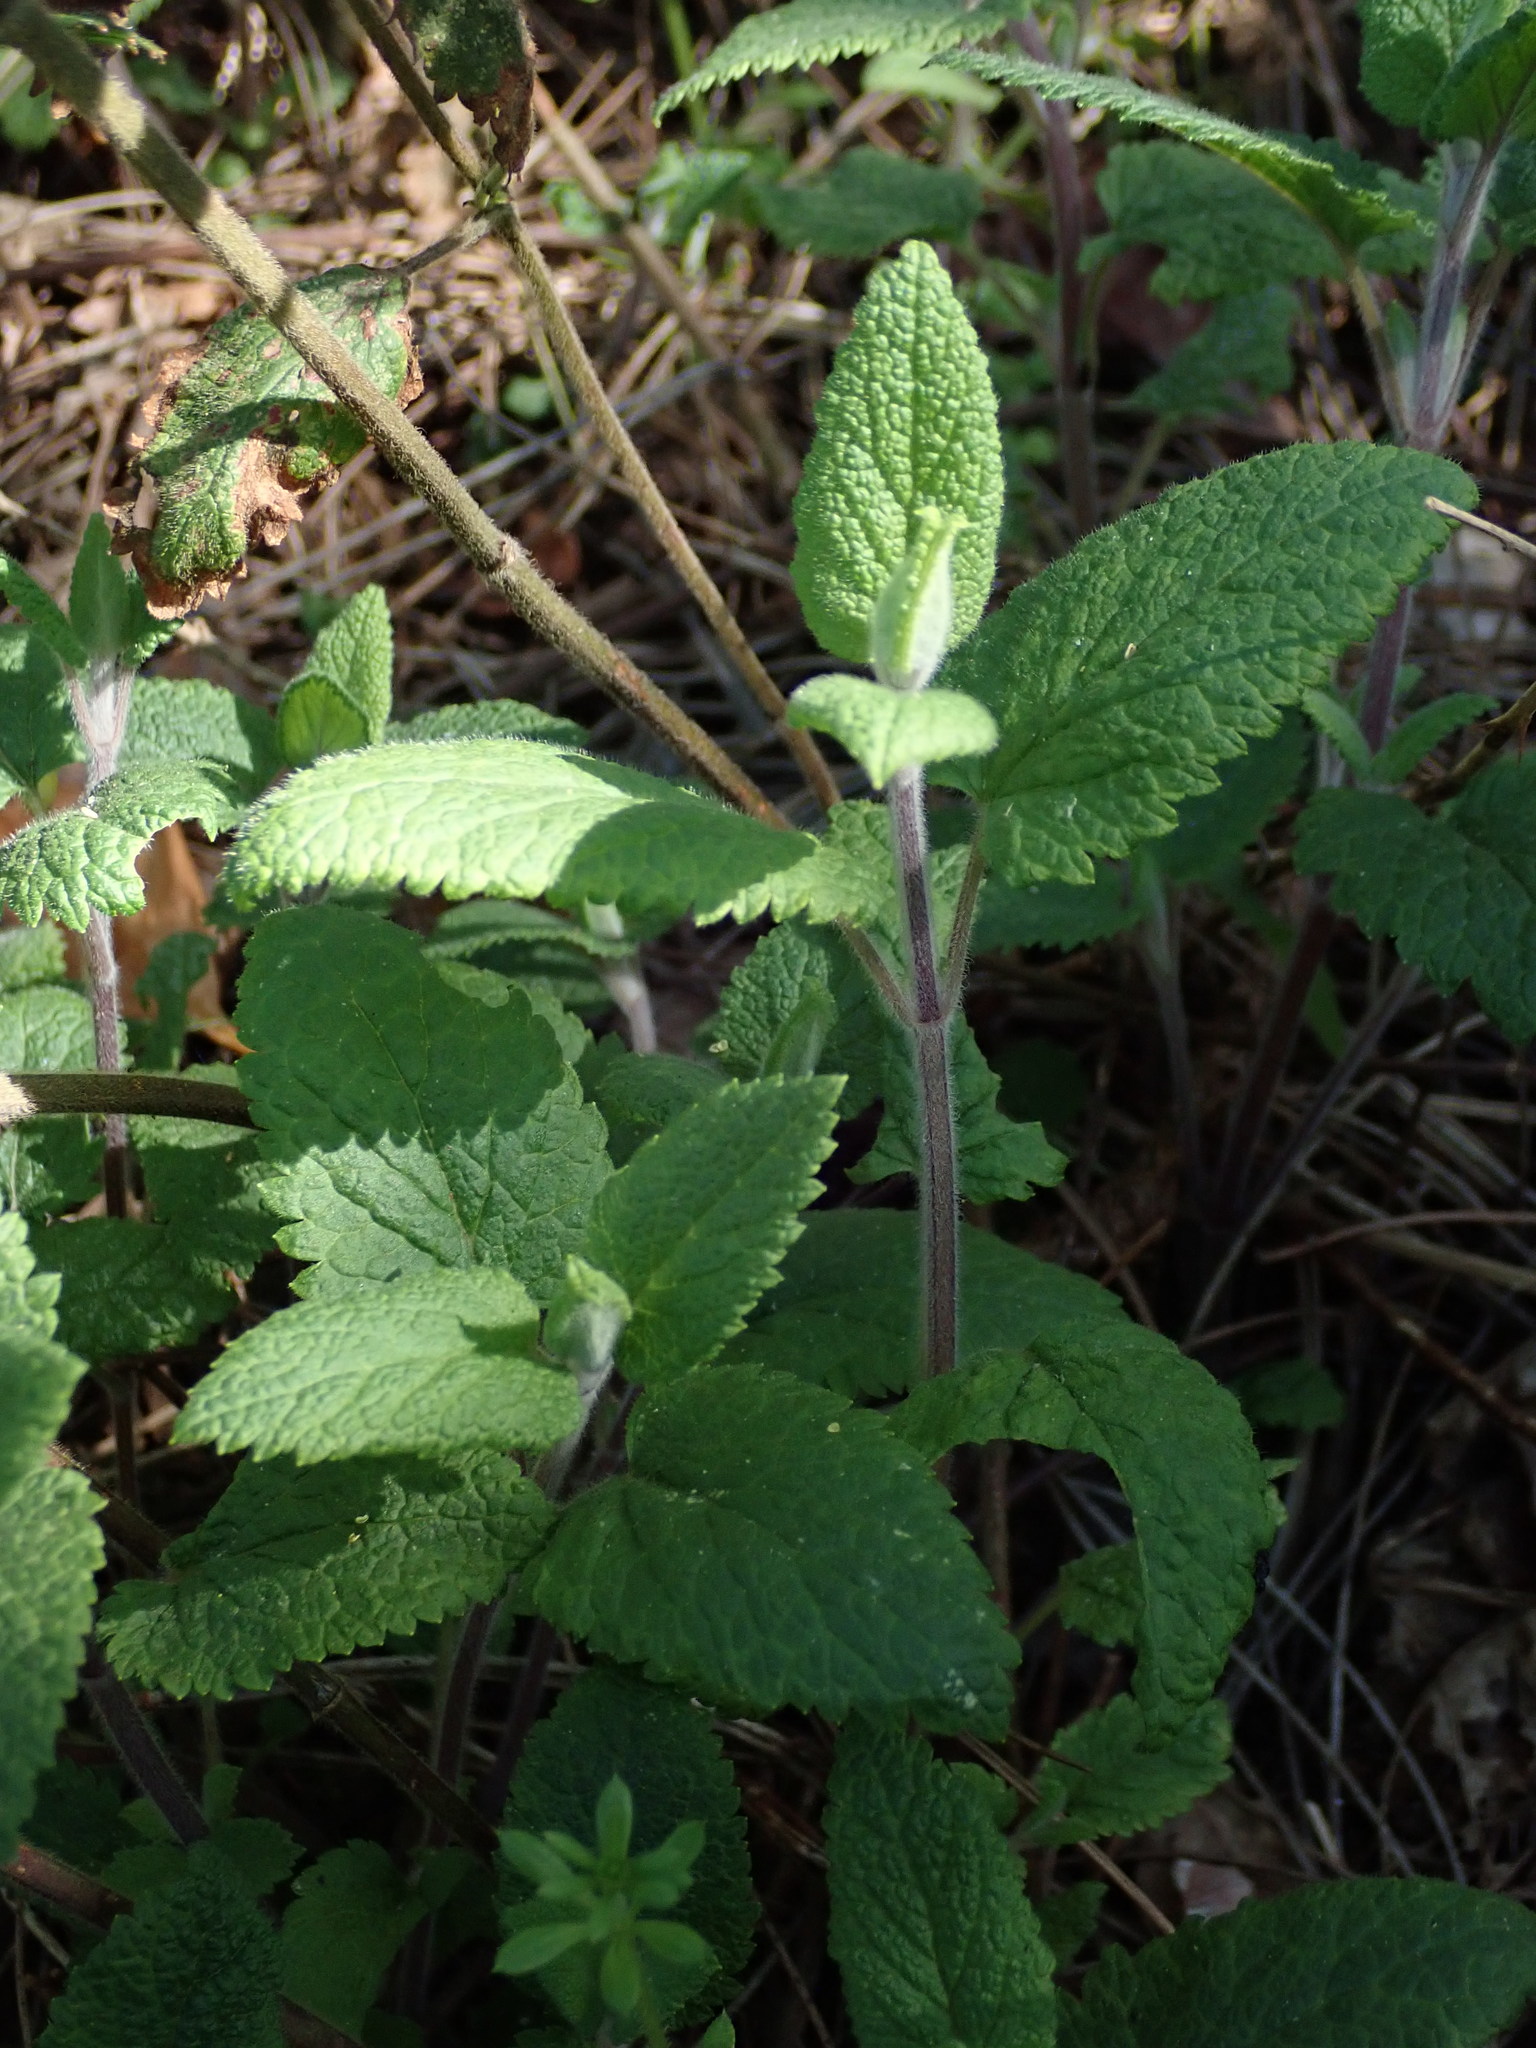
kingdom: Plantae
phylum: Tracheophyta
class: Magnoliopsida
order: Lamiales
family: Lamiaceae
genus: Teucrium
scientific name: Teucrium scorodonia
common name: Woodland germander
